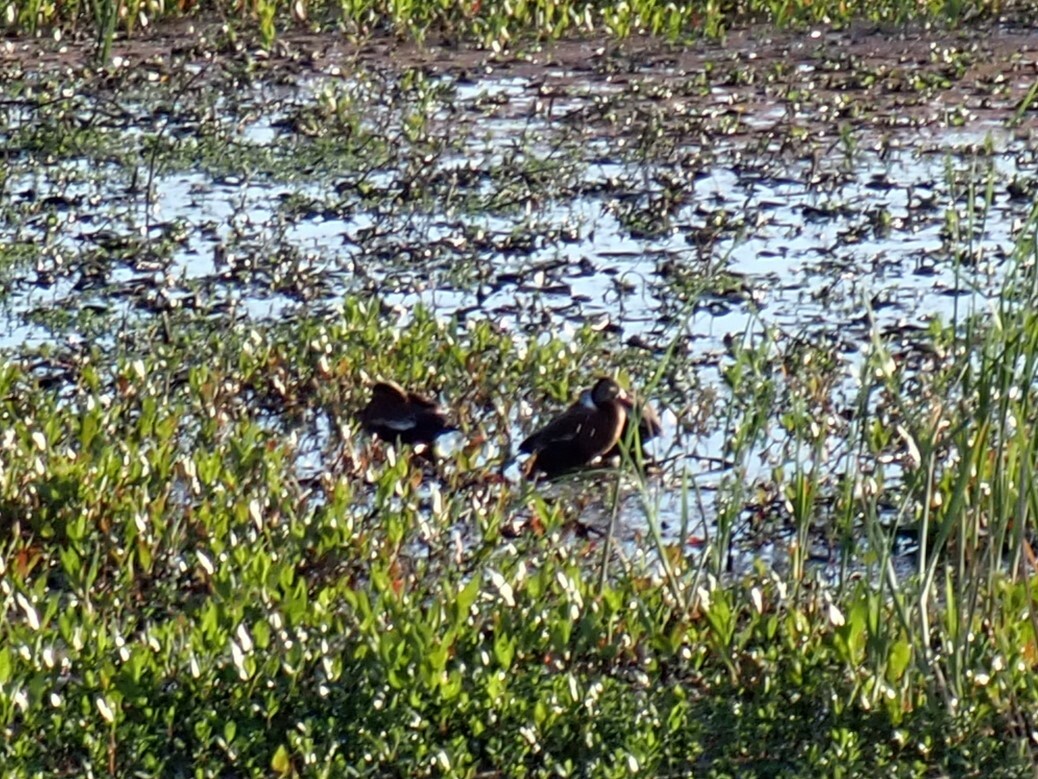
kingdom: Animalia
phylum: Chordata
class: Aves
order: Anseriformes
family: Anatidae
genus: Dendrocygna
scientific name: Dendrocygna autumnalis
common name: Black-bellied whistling duck
